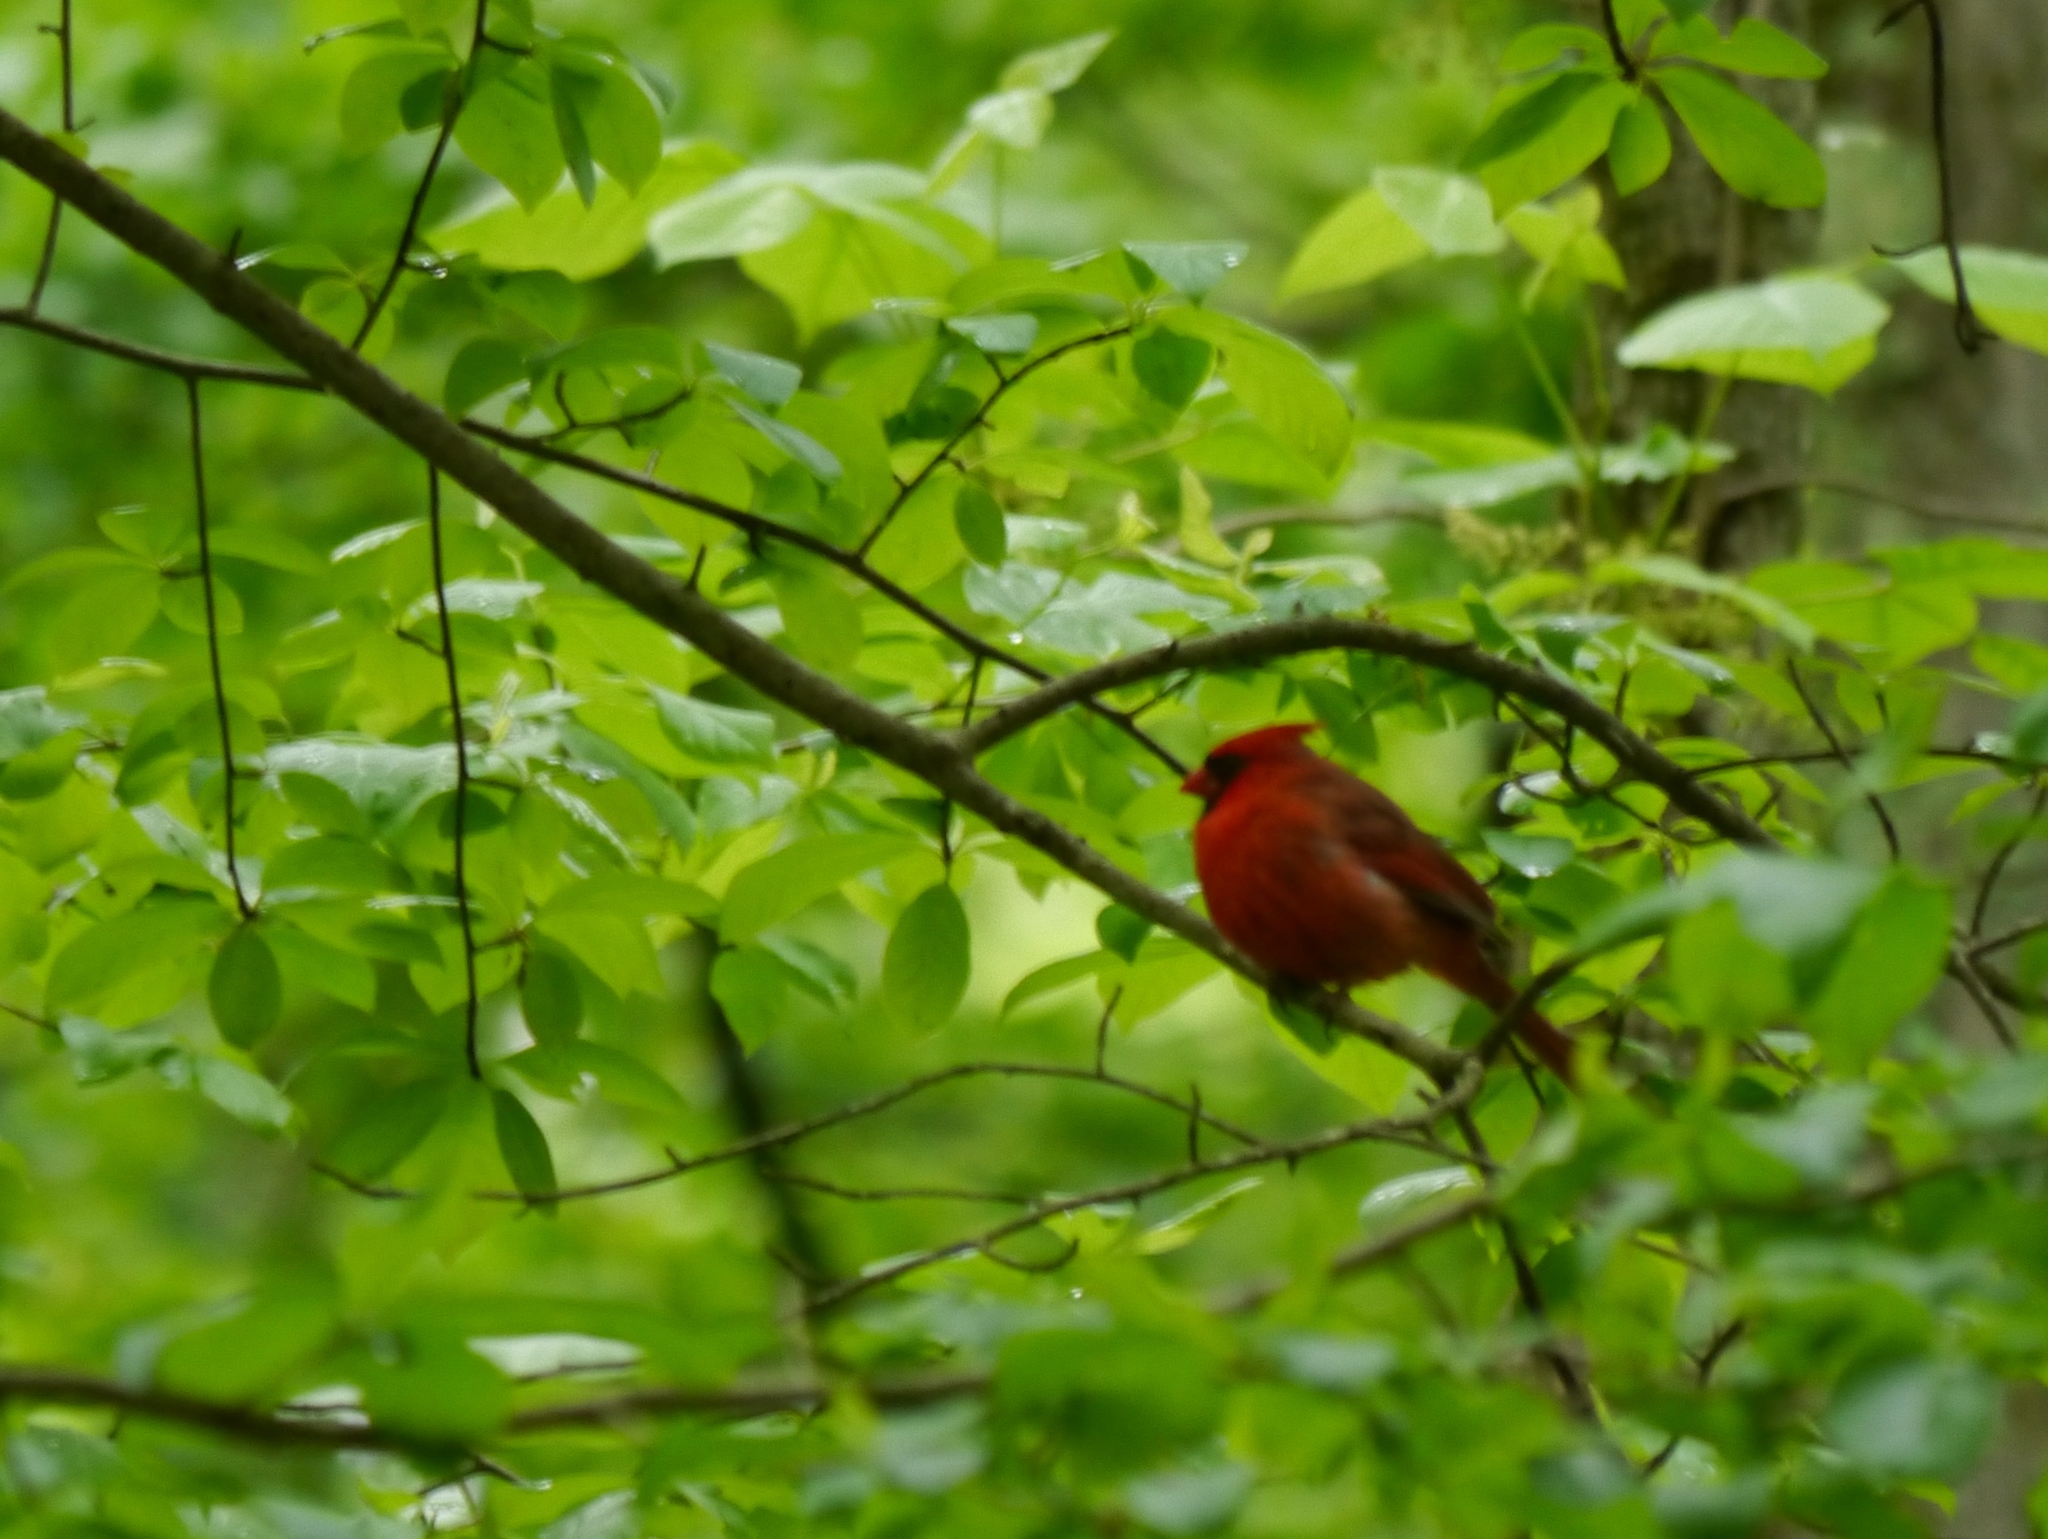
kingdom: Animalia
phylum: Chordata
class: Aves
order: Passeriformes
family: Cardinalidae
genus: Cardinalis
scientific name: Cardinalis cardinalis
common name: Northern cardinal
